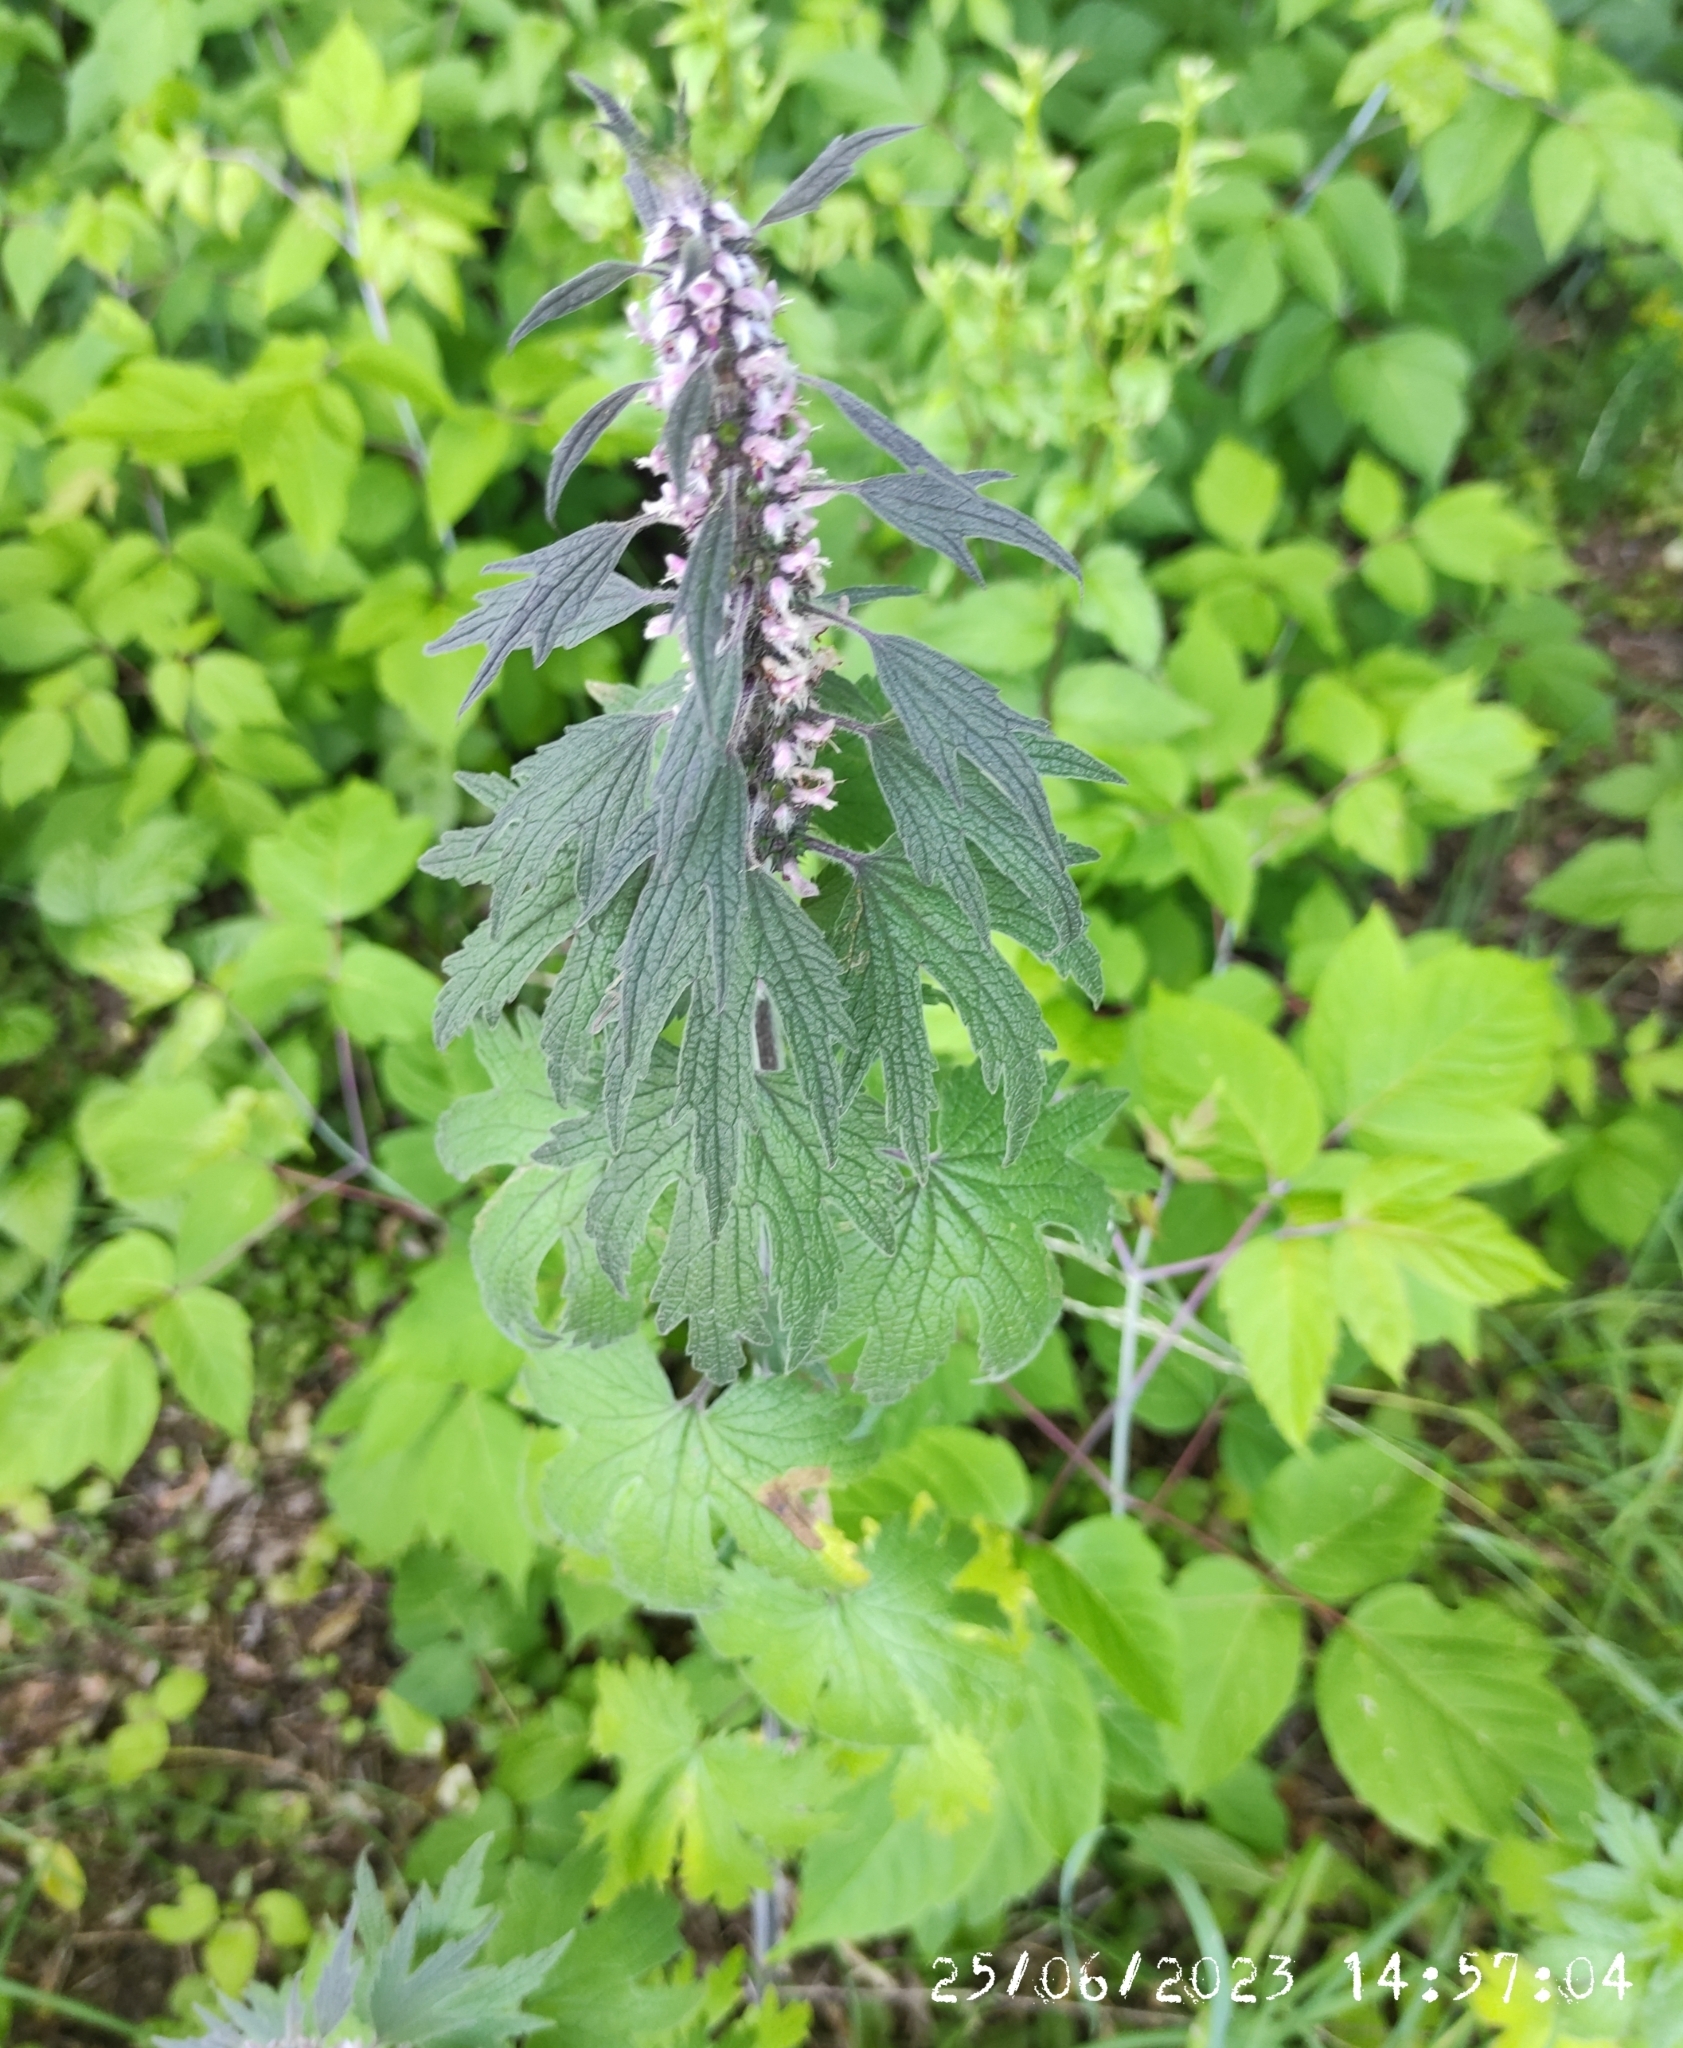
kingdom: Plantae
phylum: Tracheophyta
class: Magnoliopsida
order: Lamiales
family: Lamiaceae
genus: Leonurus
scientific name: Leonurus quinquelobatus
